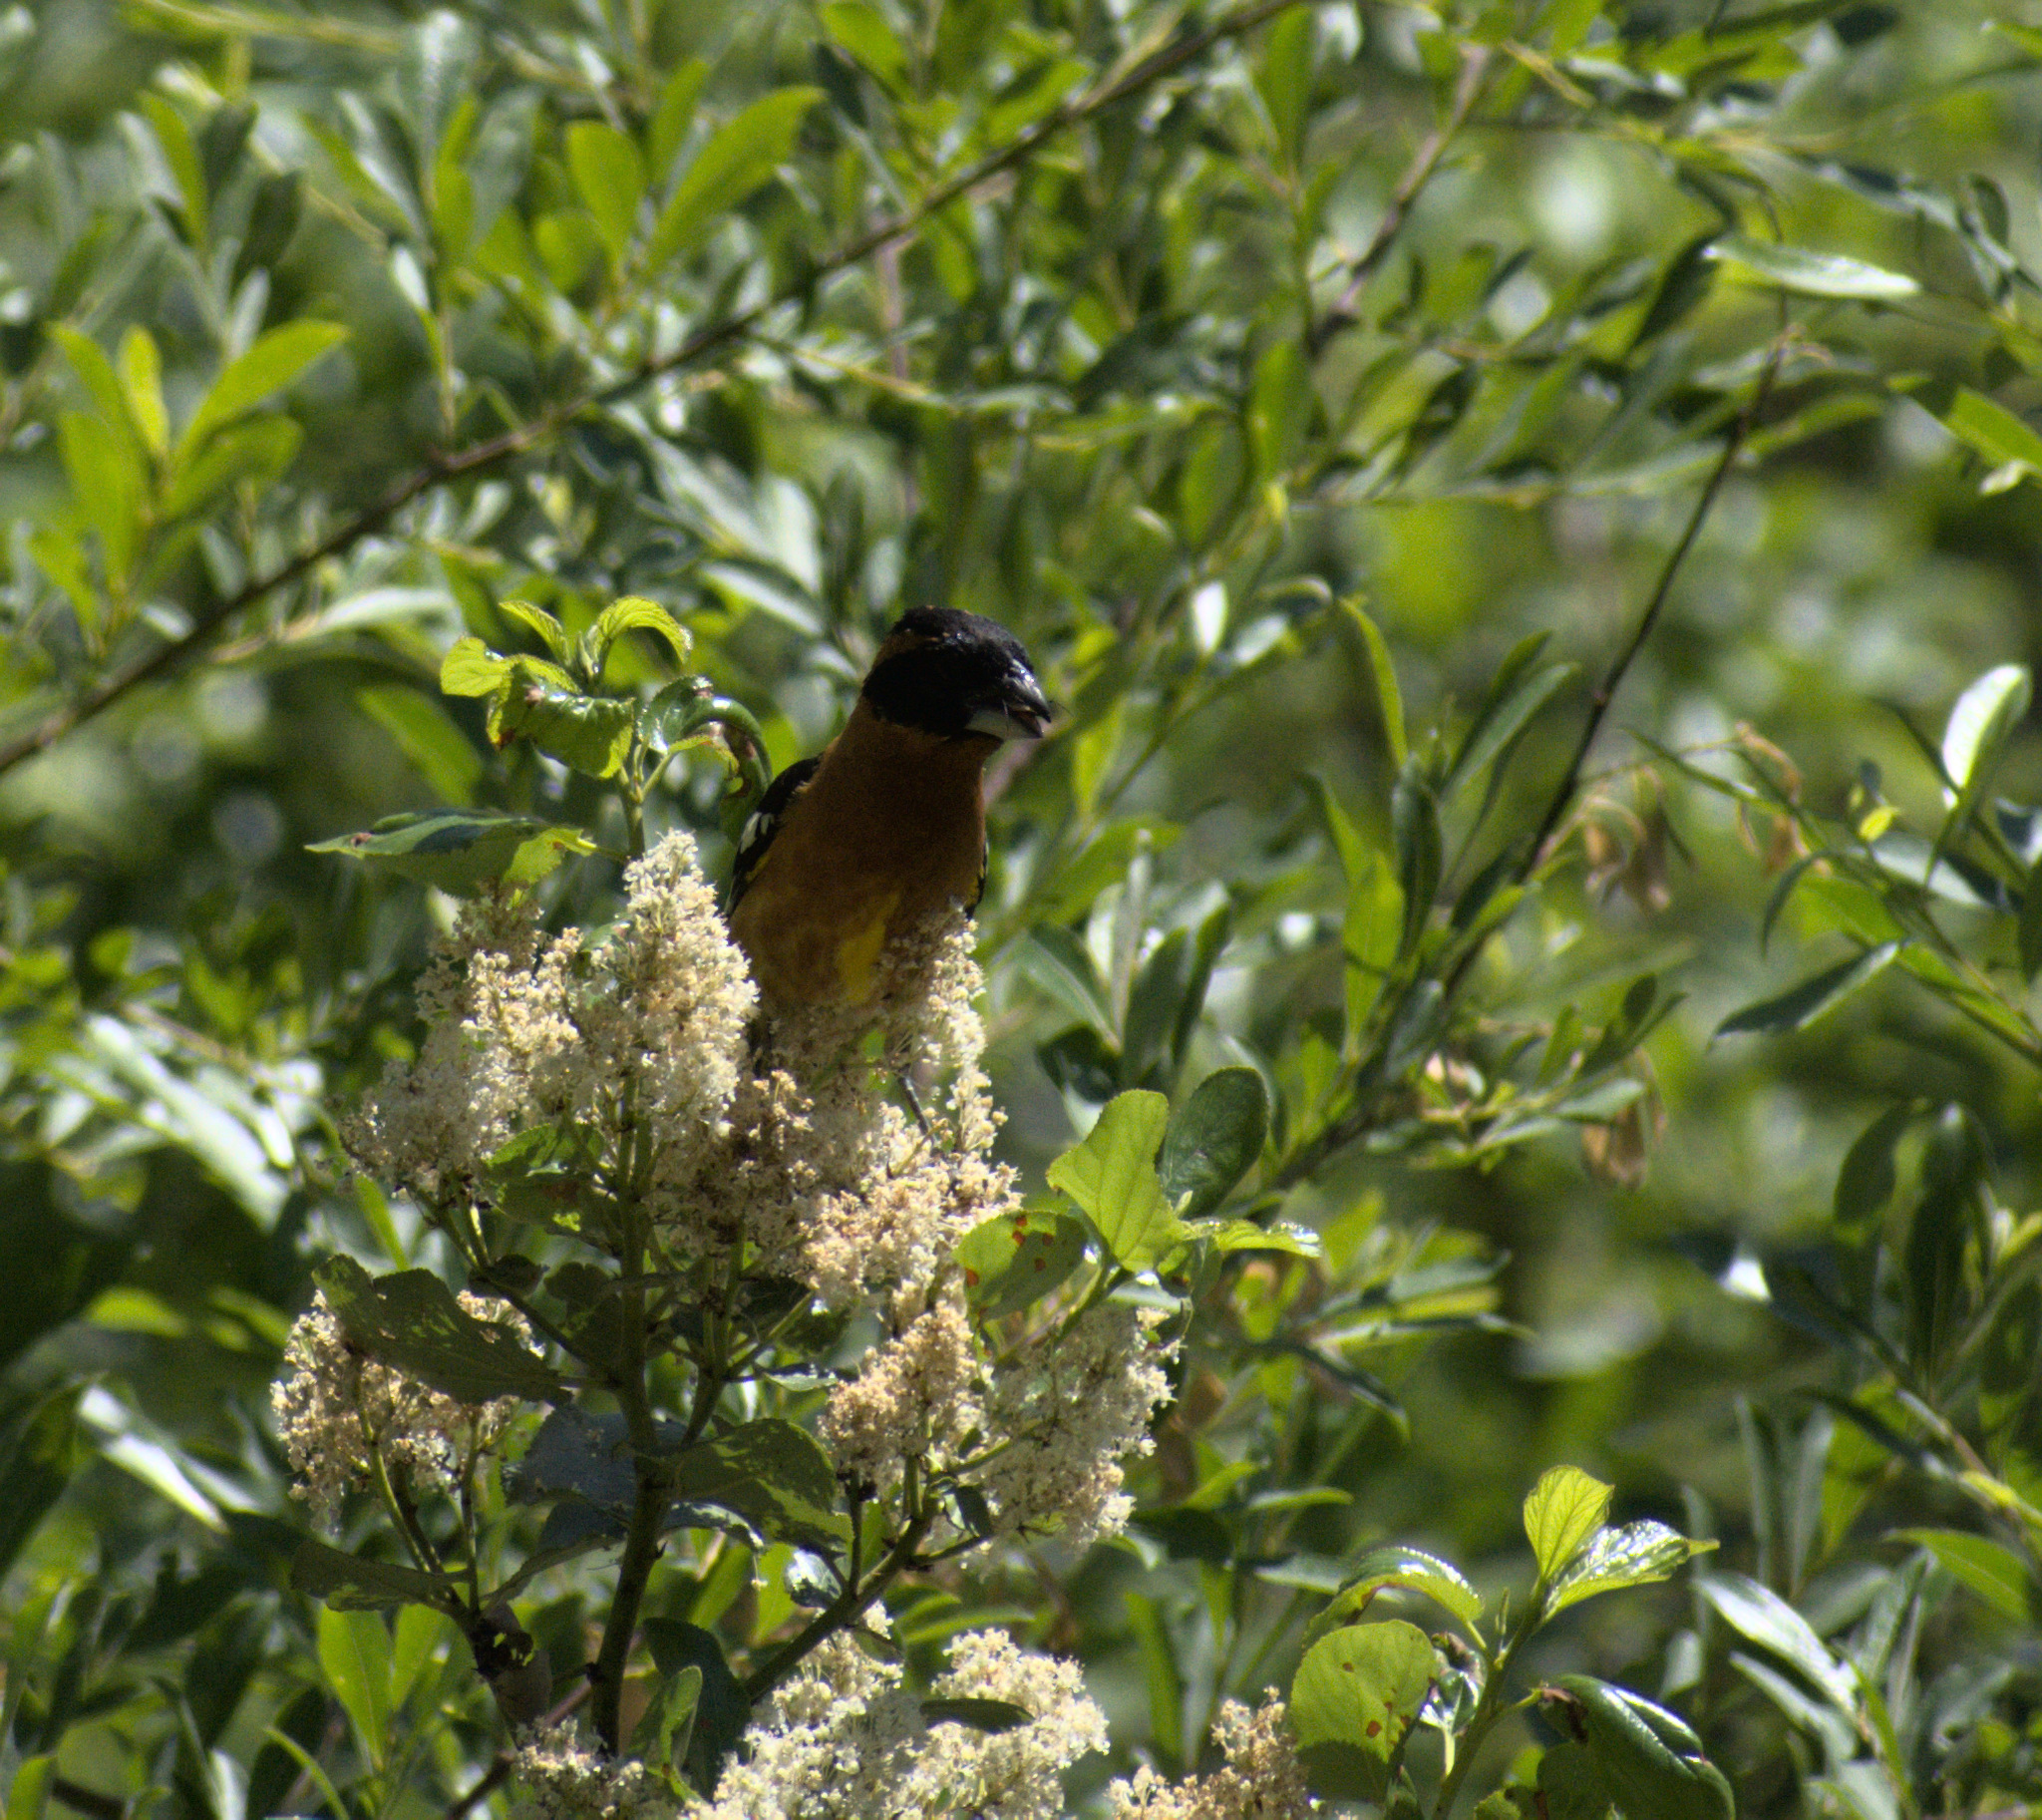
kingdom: Animalia
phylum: Chordata
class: Aves
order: Passeriformes
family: Cardinalidae
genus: Pheucticus
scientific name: Pheucticus melanocephalus
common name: Black-headed grosbeak
